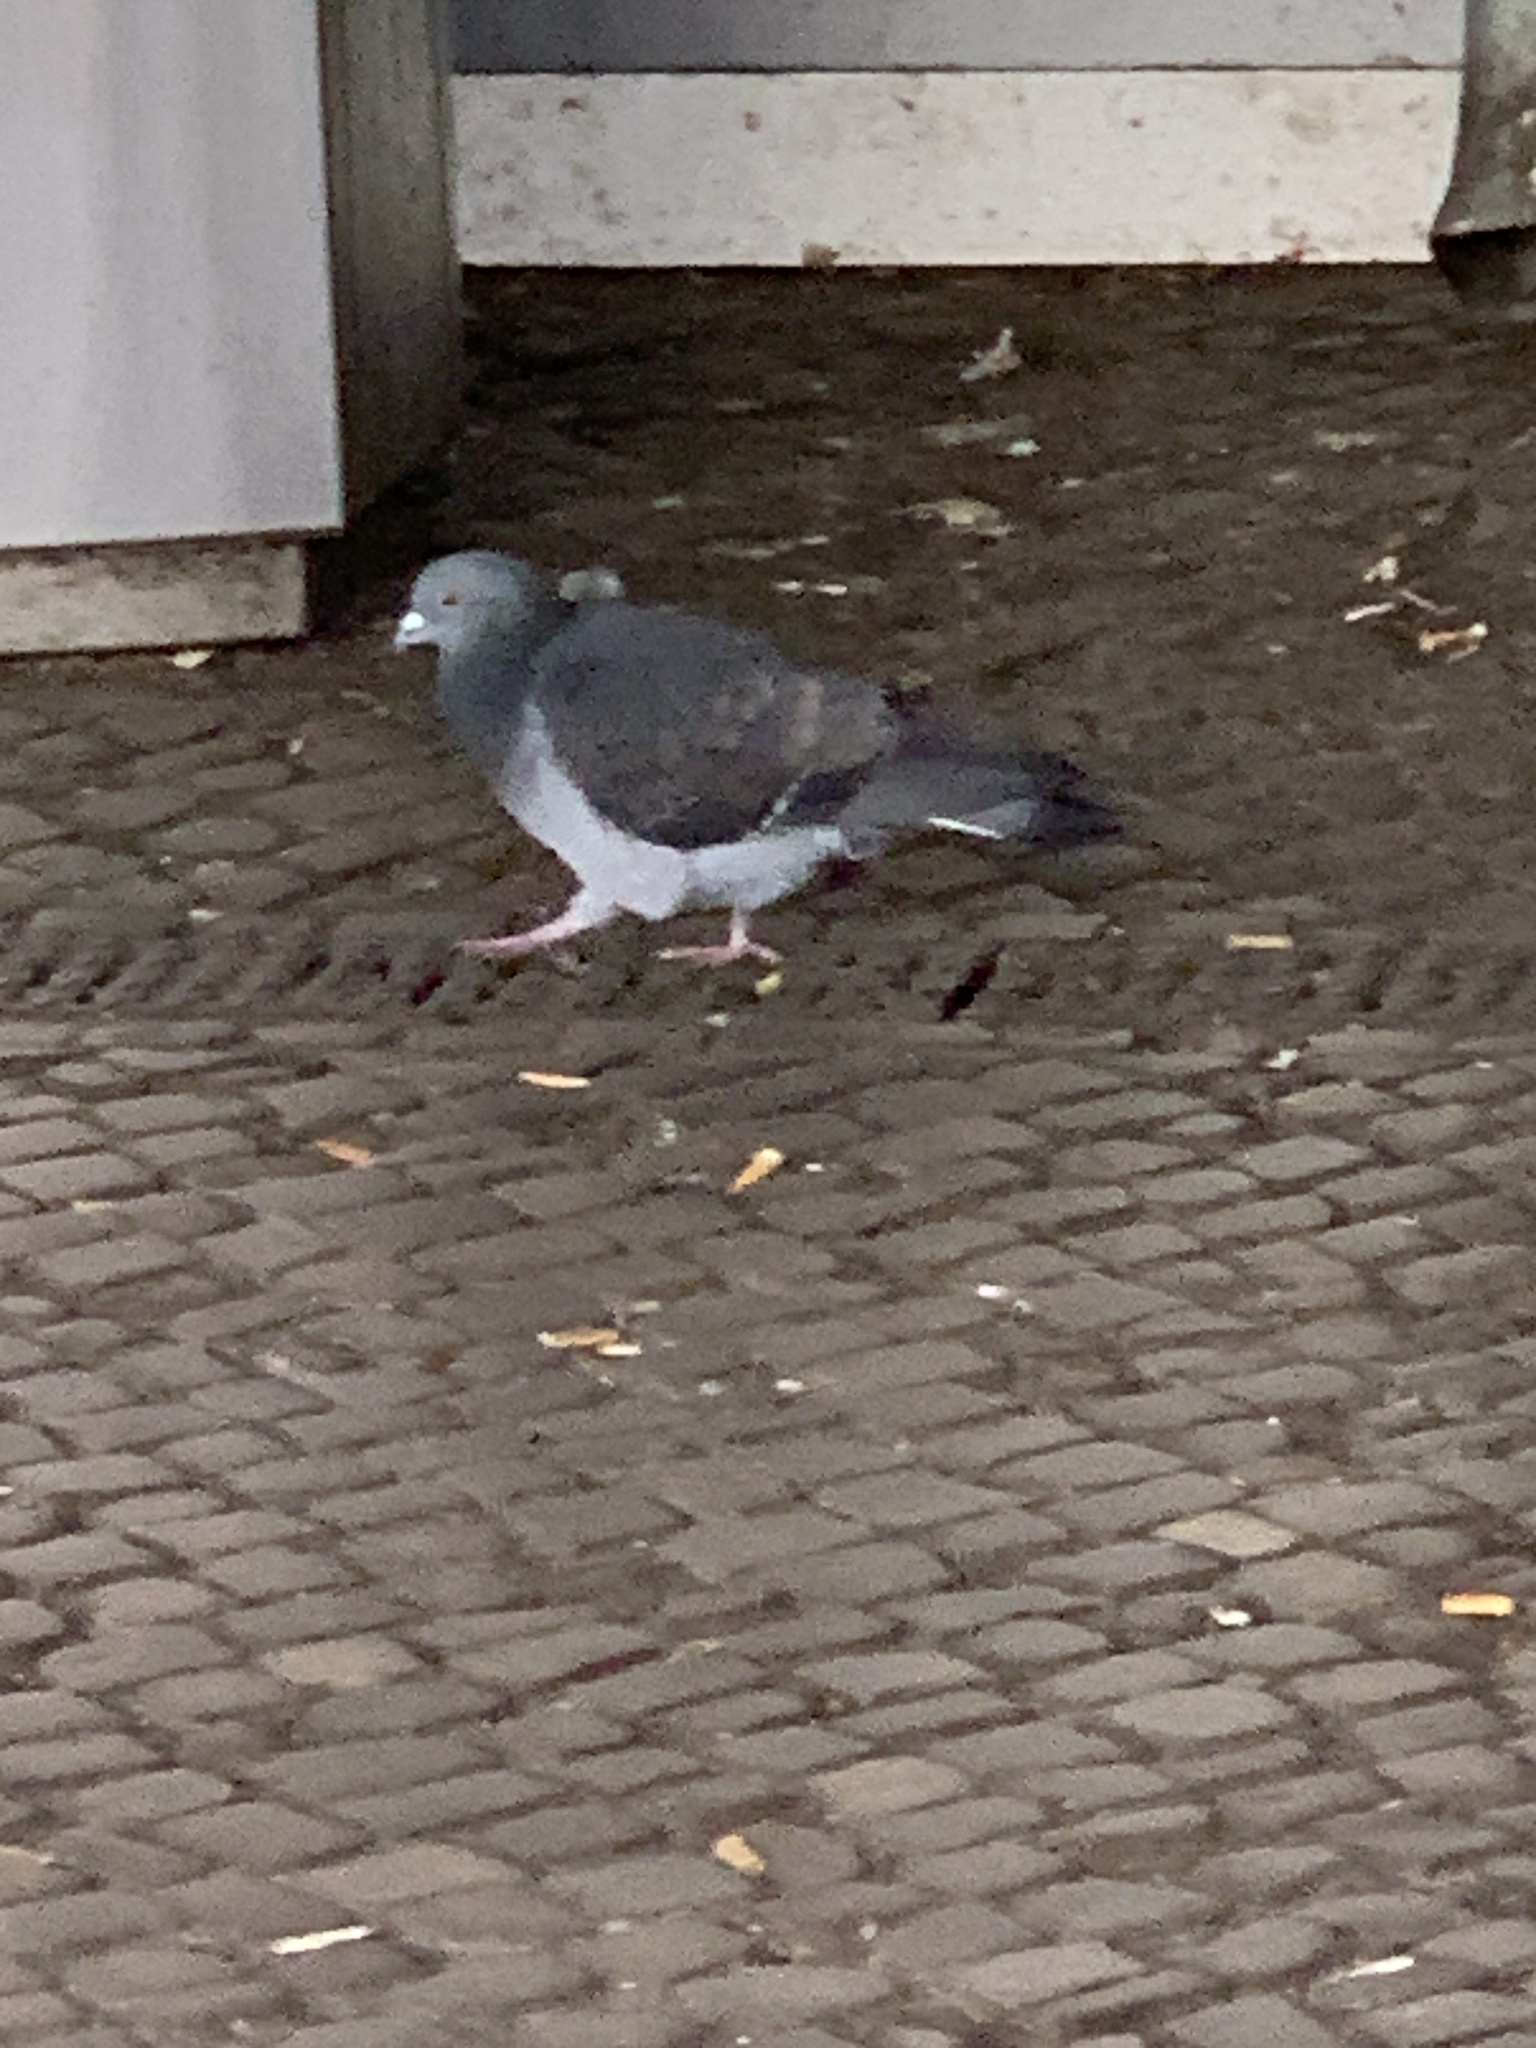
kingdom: Animalia
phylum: Chordata
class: Aves
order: Columbiformes
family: Columbidae
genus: Columba
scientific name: Columba livia
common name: Rock pigeon
